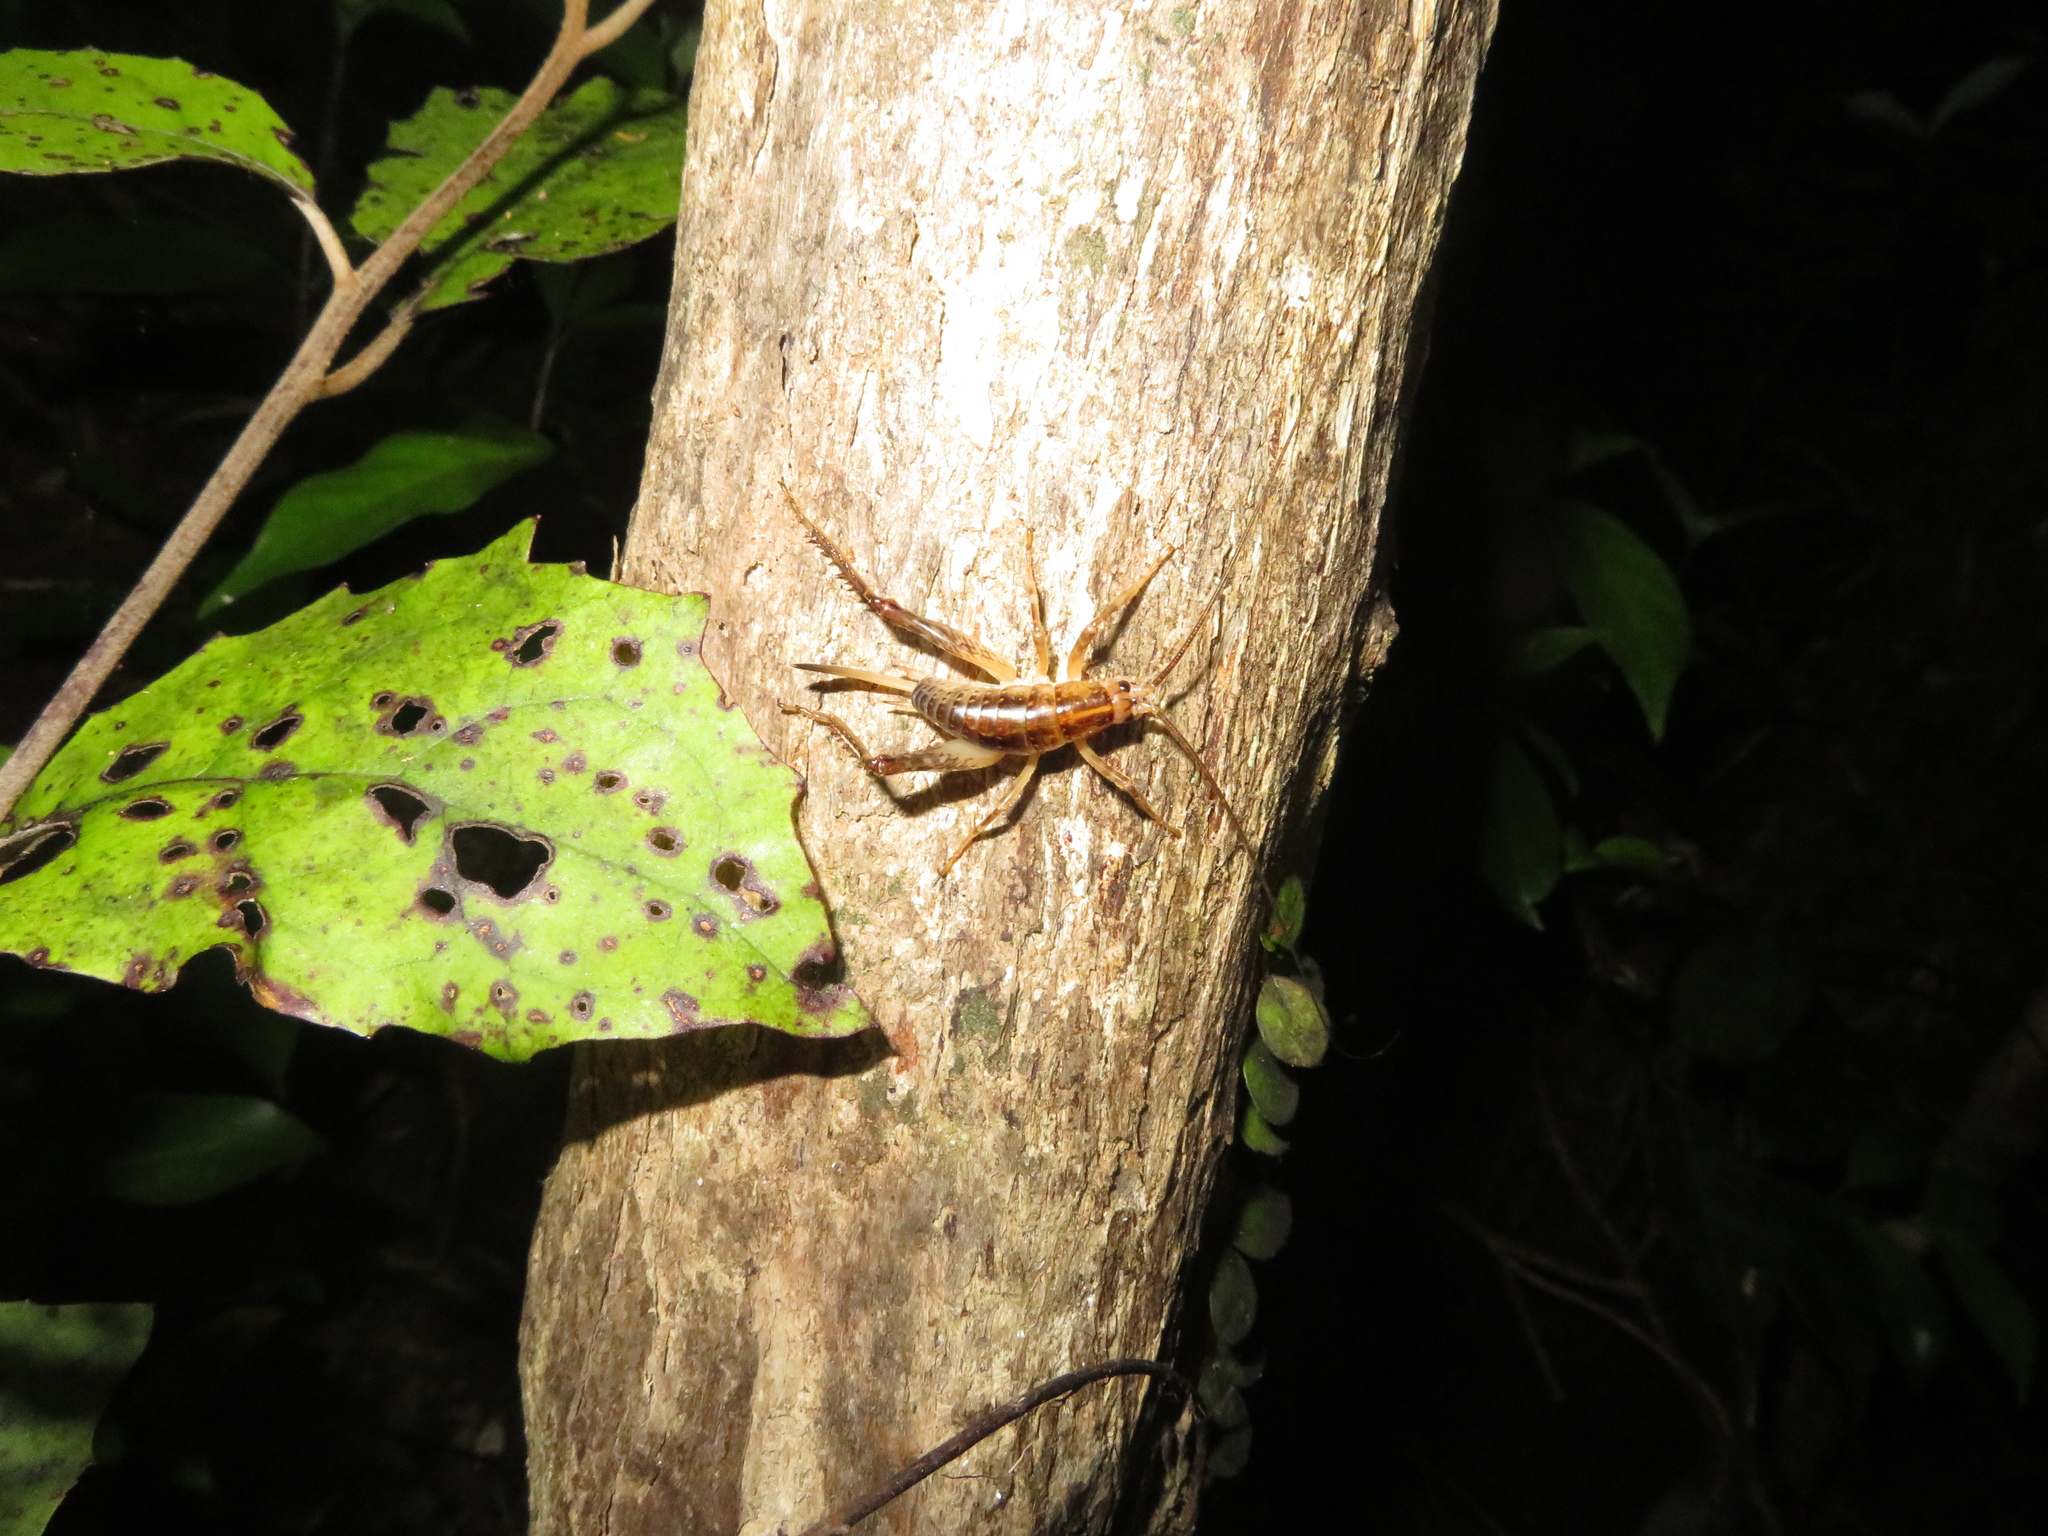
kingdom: Animalia
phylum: Arthropoda
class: Insecta
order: Orthoptera
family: Rhaphidophoridae
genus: Talitropsis
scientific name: Talitropsis sedilloti
